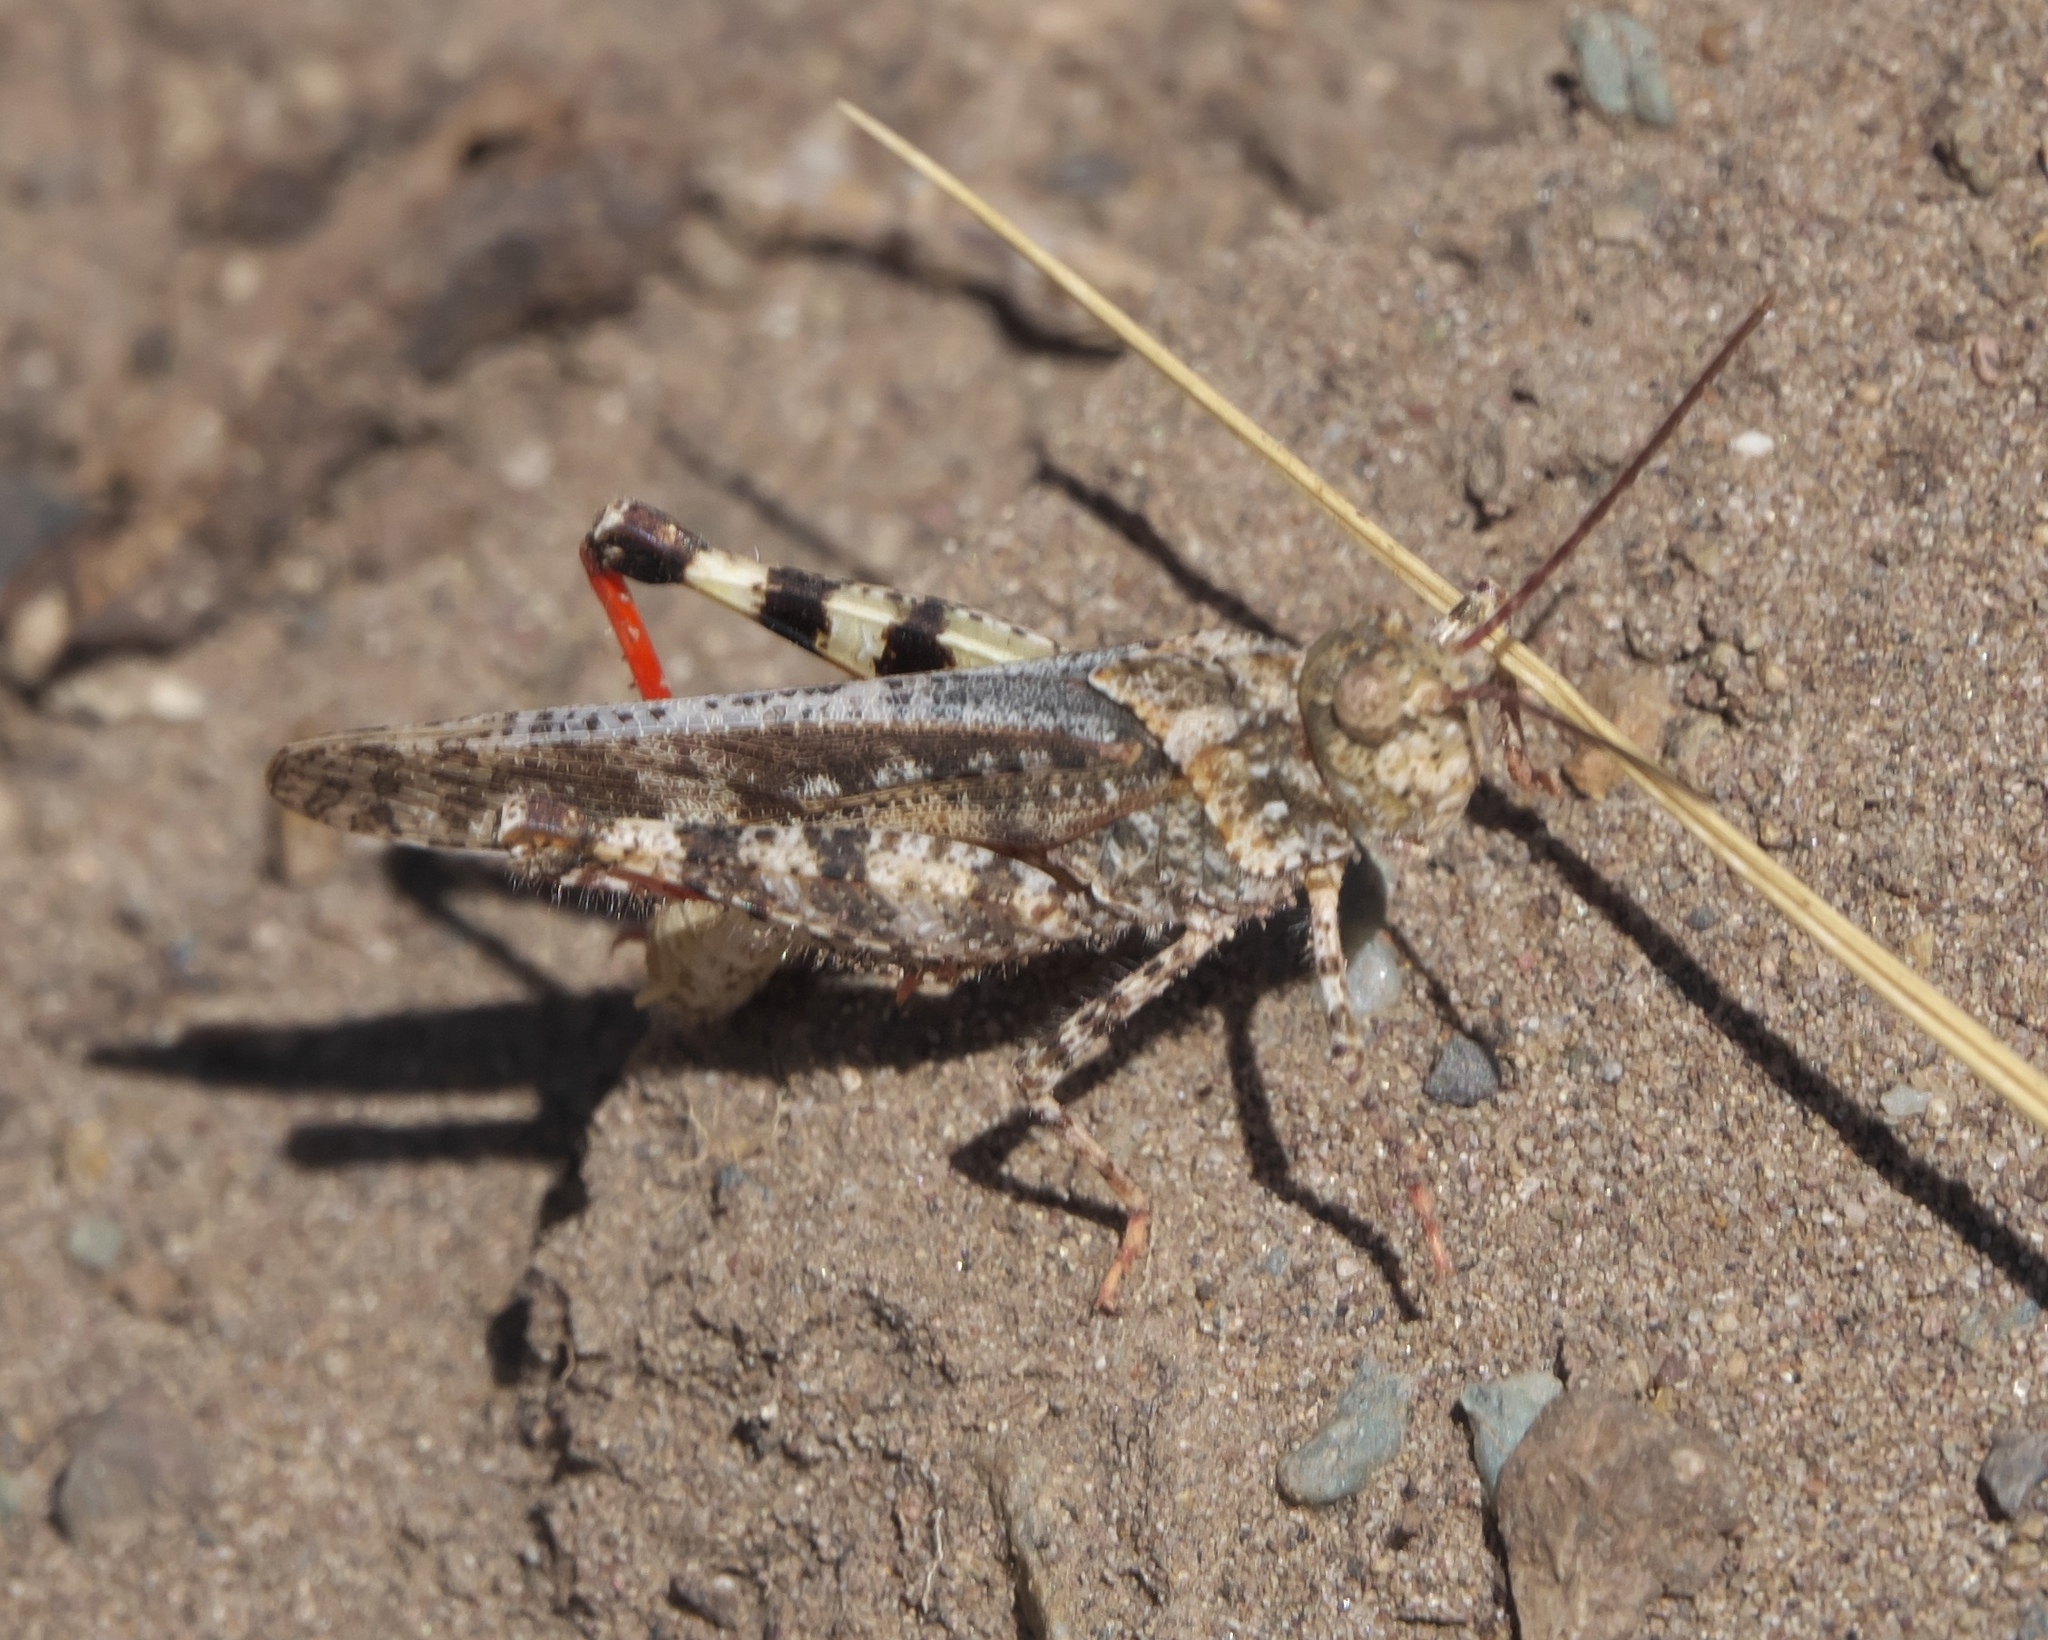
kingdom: Animalia
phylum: Arthropoda
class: Insecta
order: Orthoptera
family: Acrididae
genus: Spharagemon
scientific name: Spharagemon collare
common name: Mottled sand grasshopper
